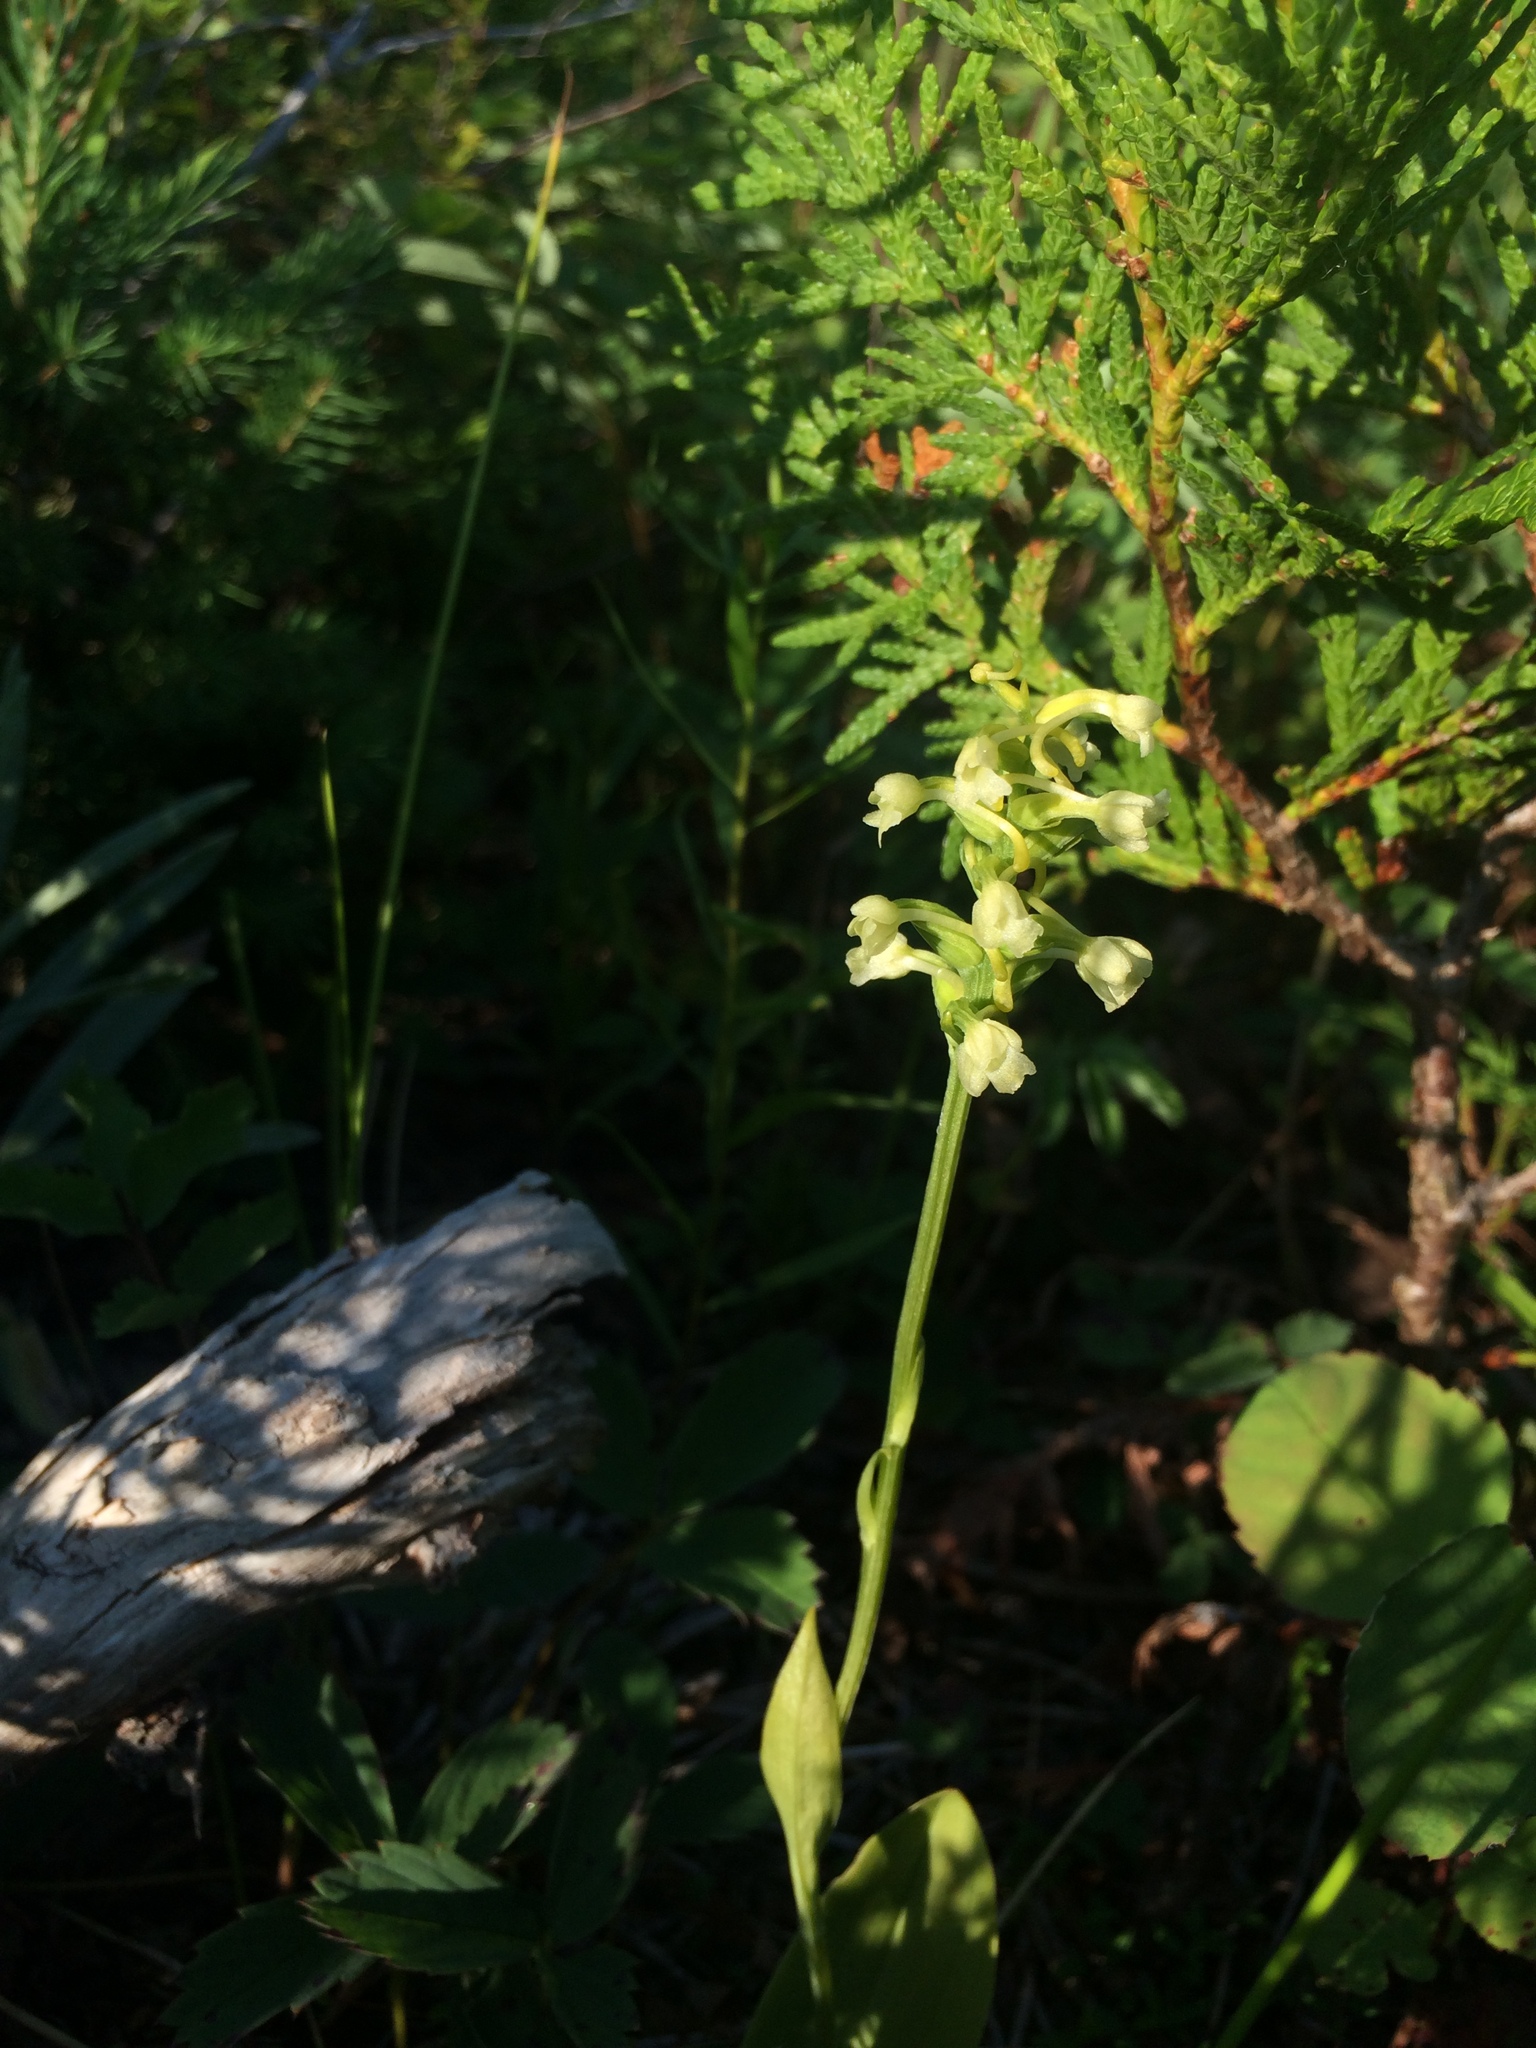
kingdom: Plantae
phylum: Tracheophyta
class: Liliopsida
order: Asparagales
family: Orchidaceae
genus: Platanthera
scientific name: Platanthera clavellata
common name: Club-spur orchid
